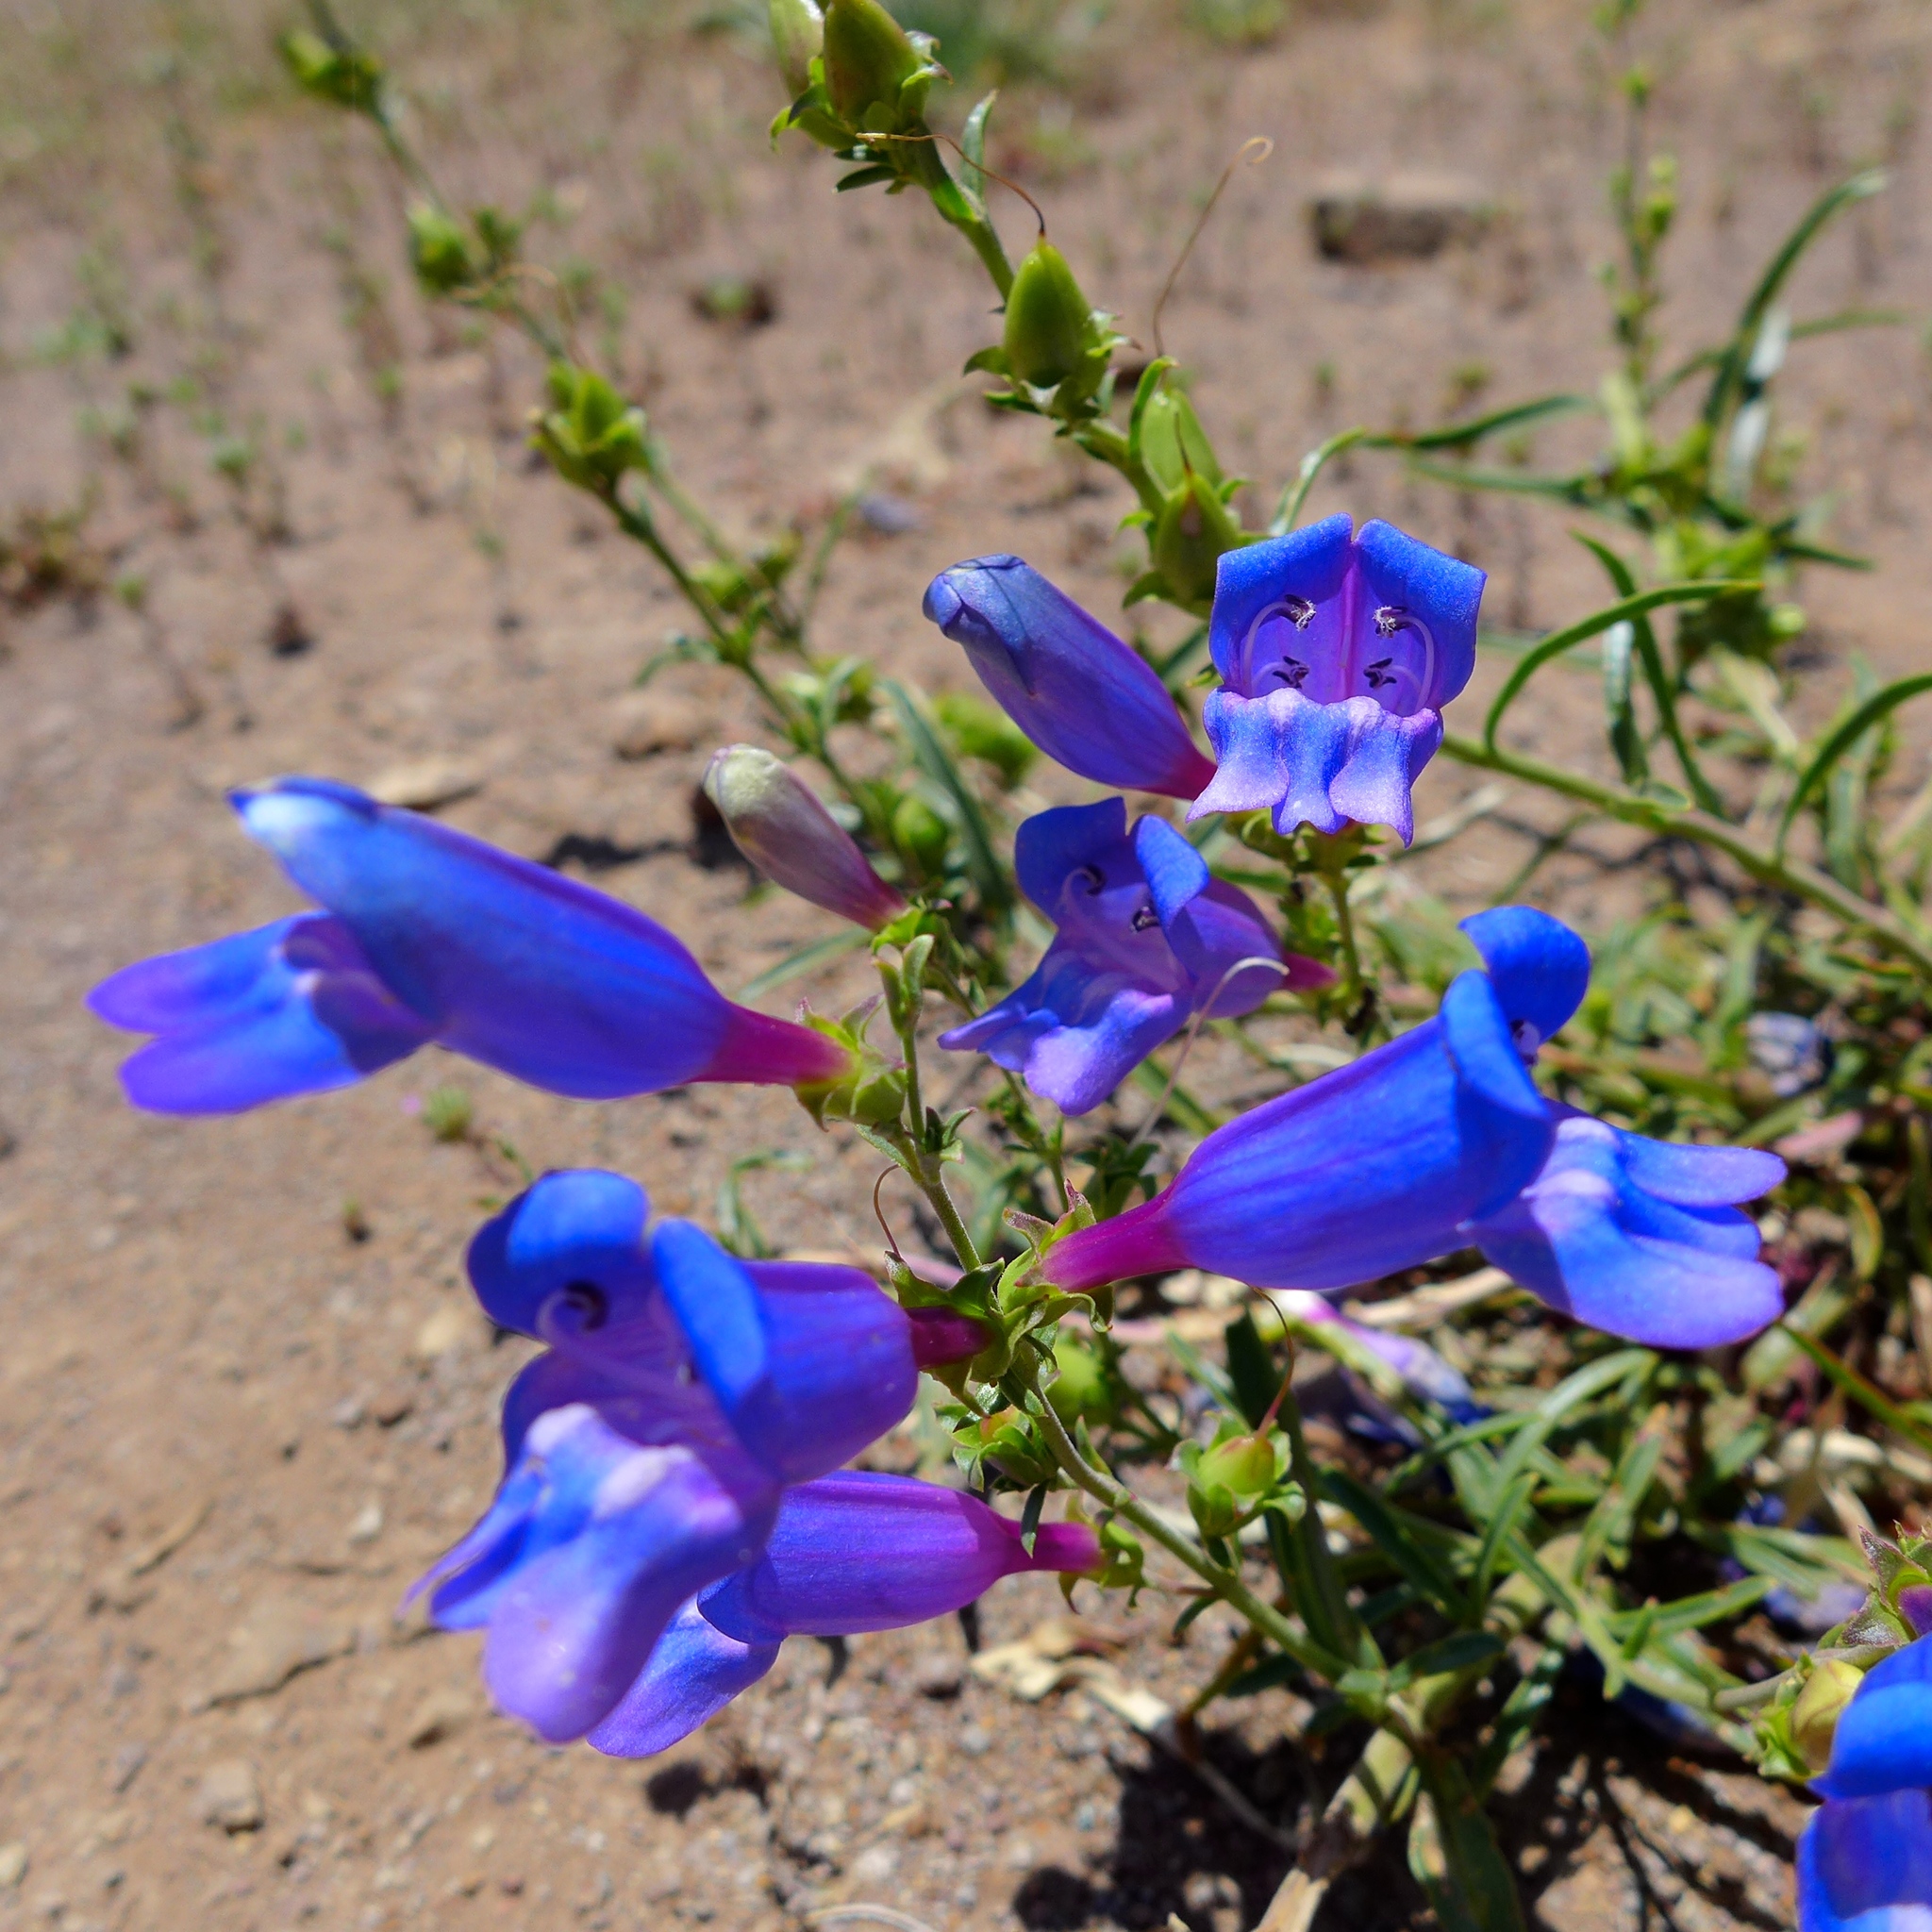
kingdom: Plantae
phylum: Tracheophyta
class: Magnoliopsida
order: Lamiales
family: Plantaginaceae
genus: Penstemon
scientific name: Penstemon heterophyllus
